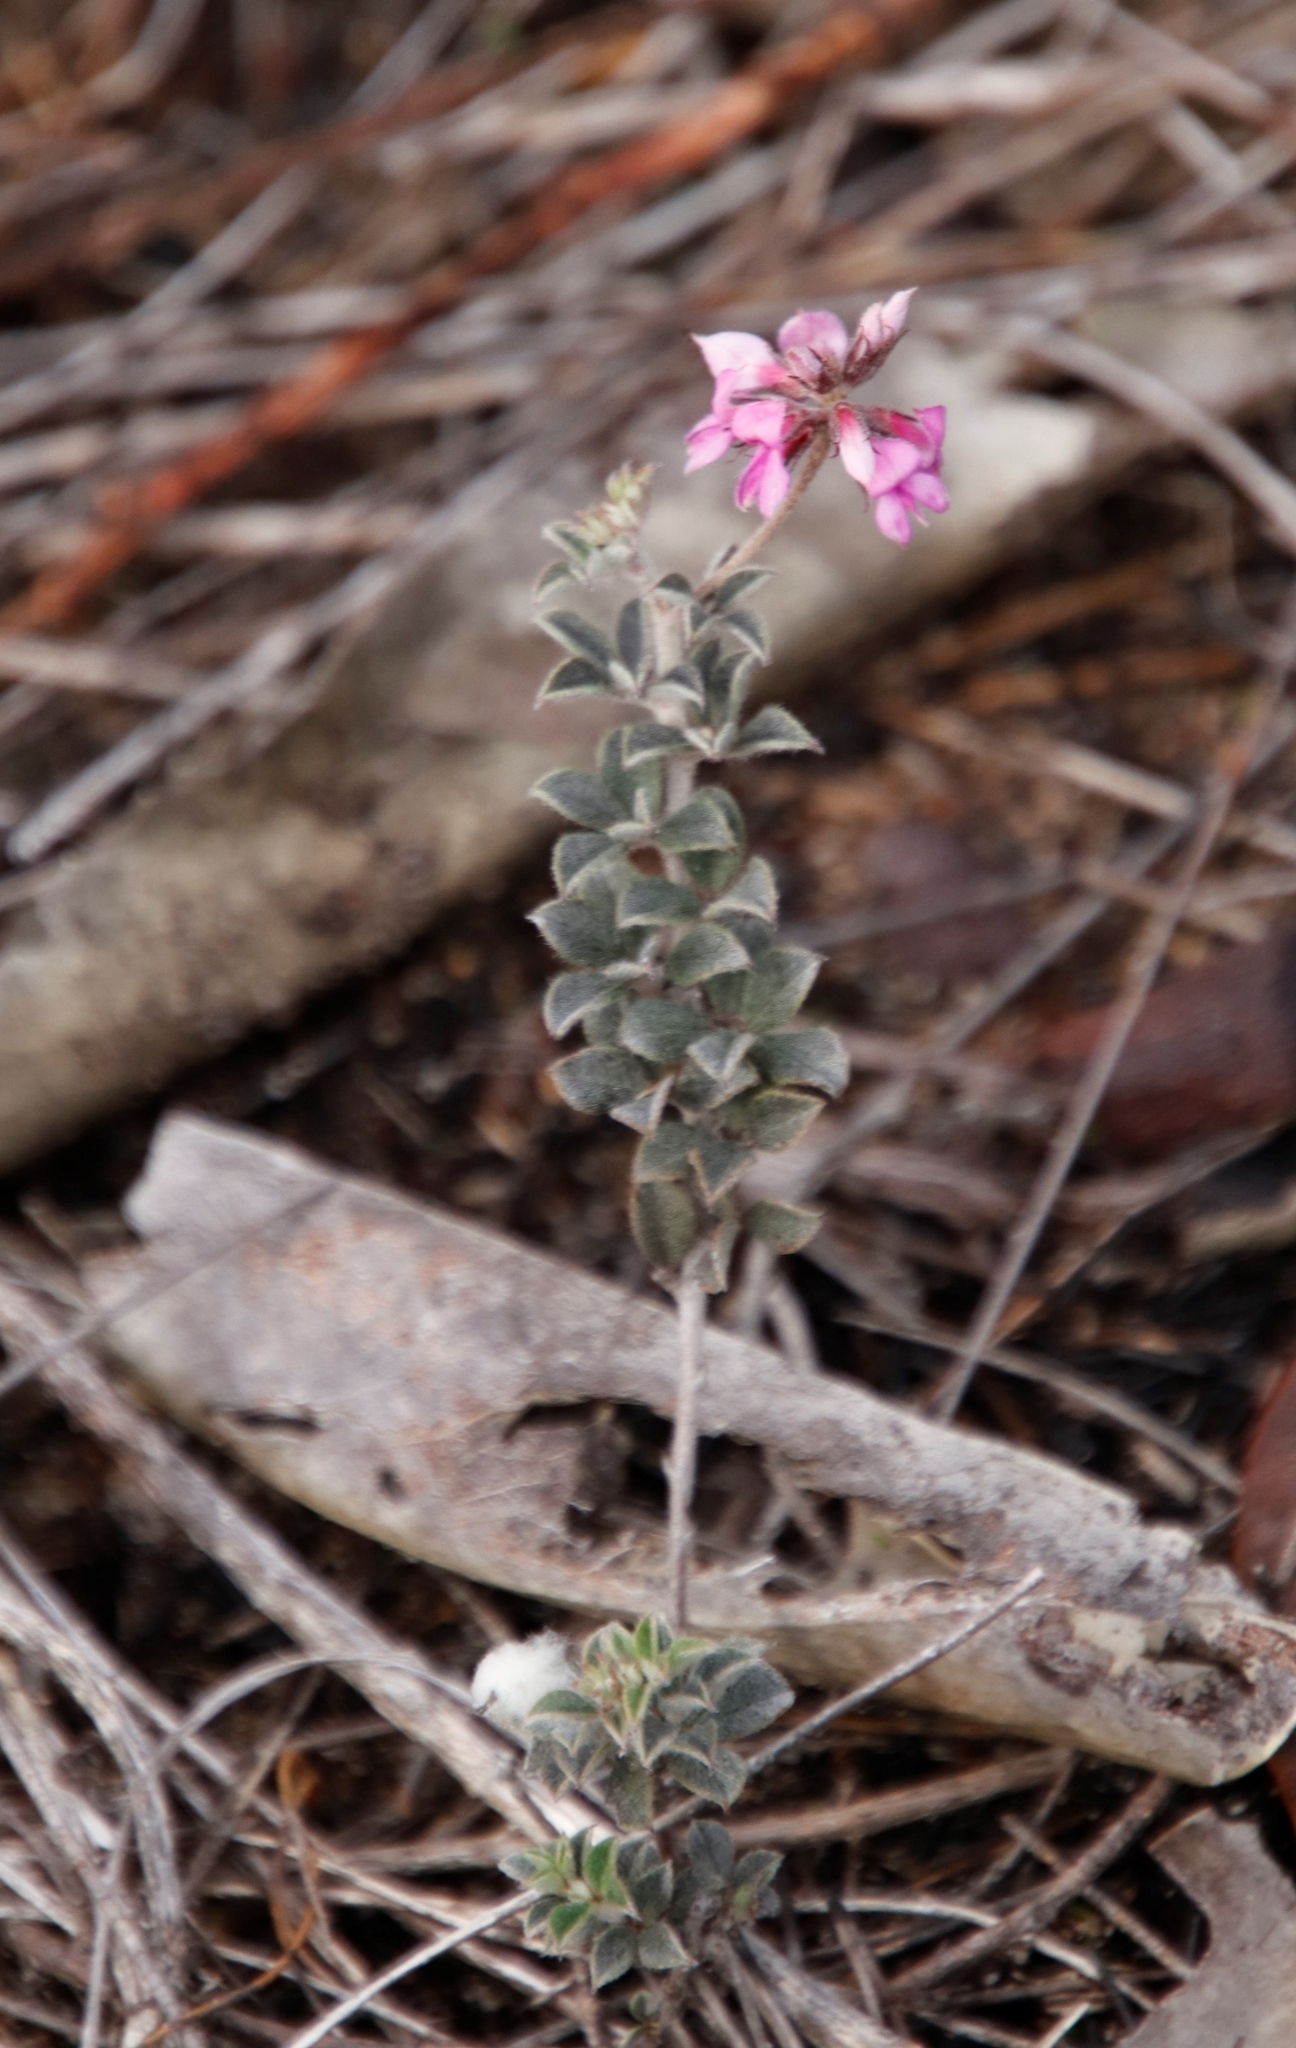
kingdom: Plantae
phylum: Tracheophyta
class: Magnoliopsida
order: Fabales
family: Fabaceae
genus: Indigofera
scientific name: Indigofera mauritanica
